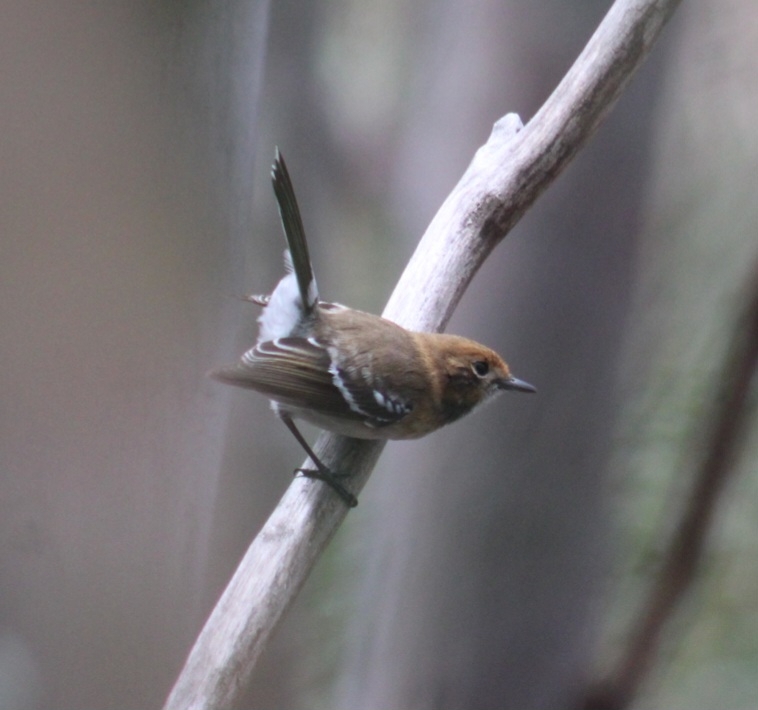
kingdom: Animalia
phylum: Chordata
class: Aves
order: Passeriformes
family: Monarchidae
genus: Chasiempis
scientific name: Chasiempis ibidis
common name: Oahu elepaio
